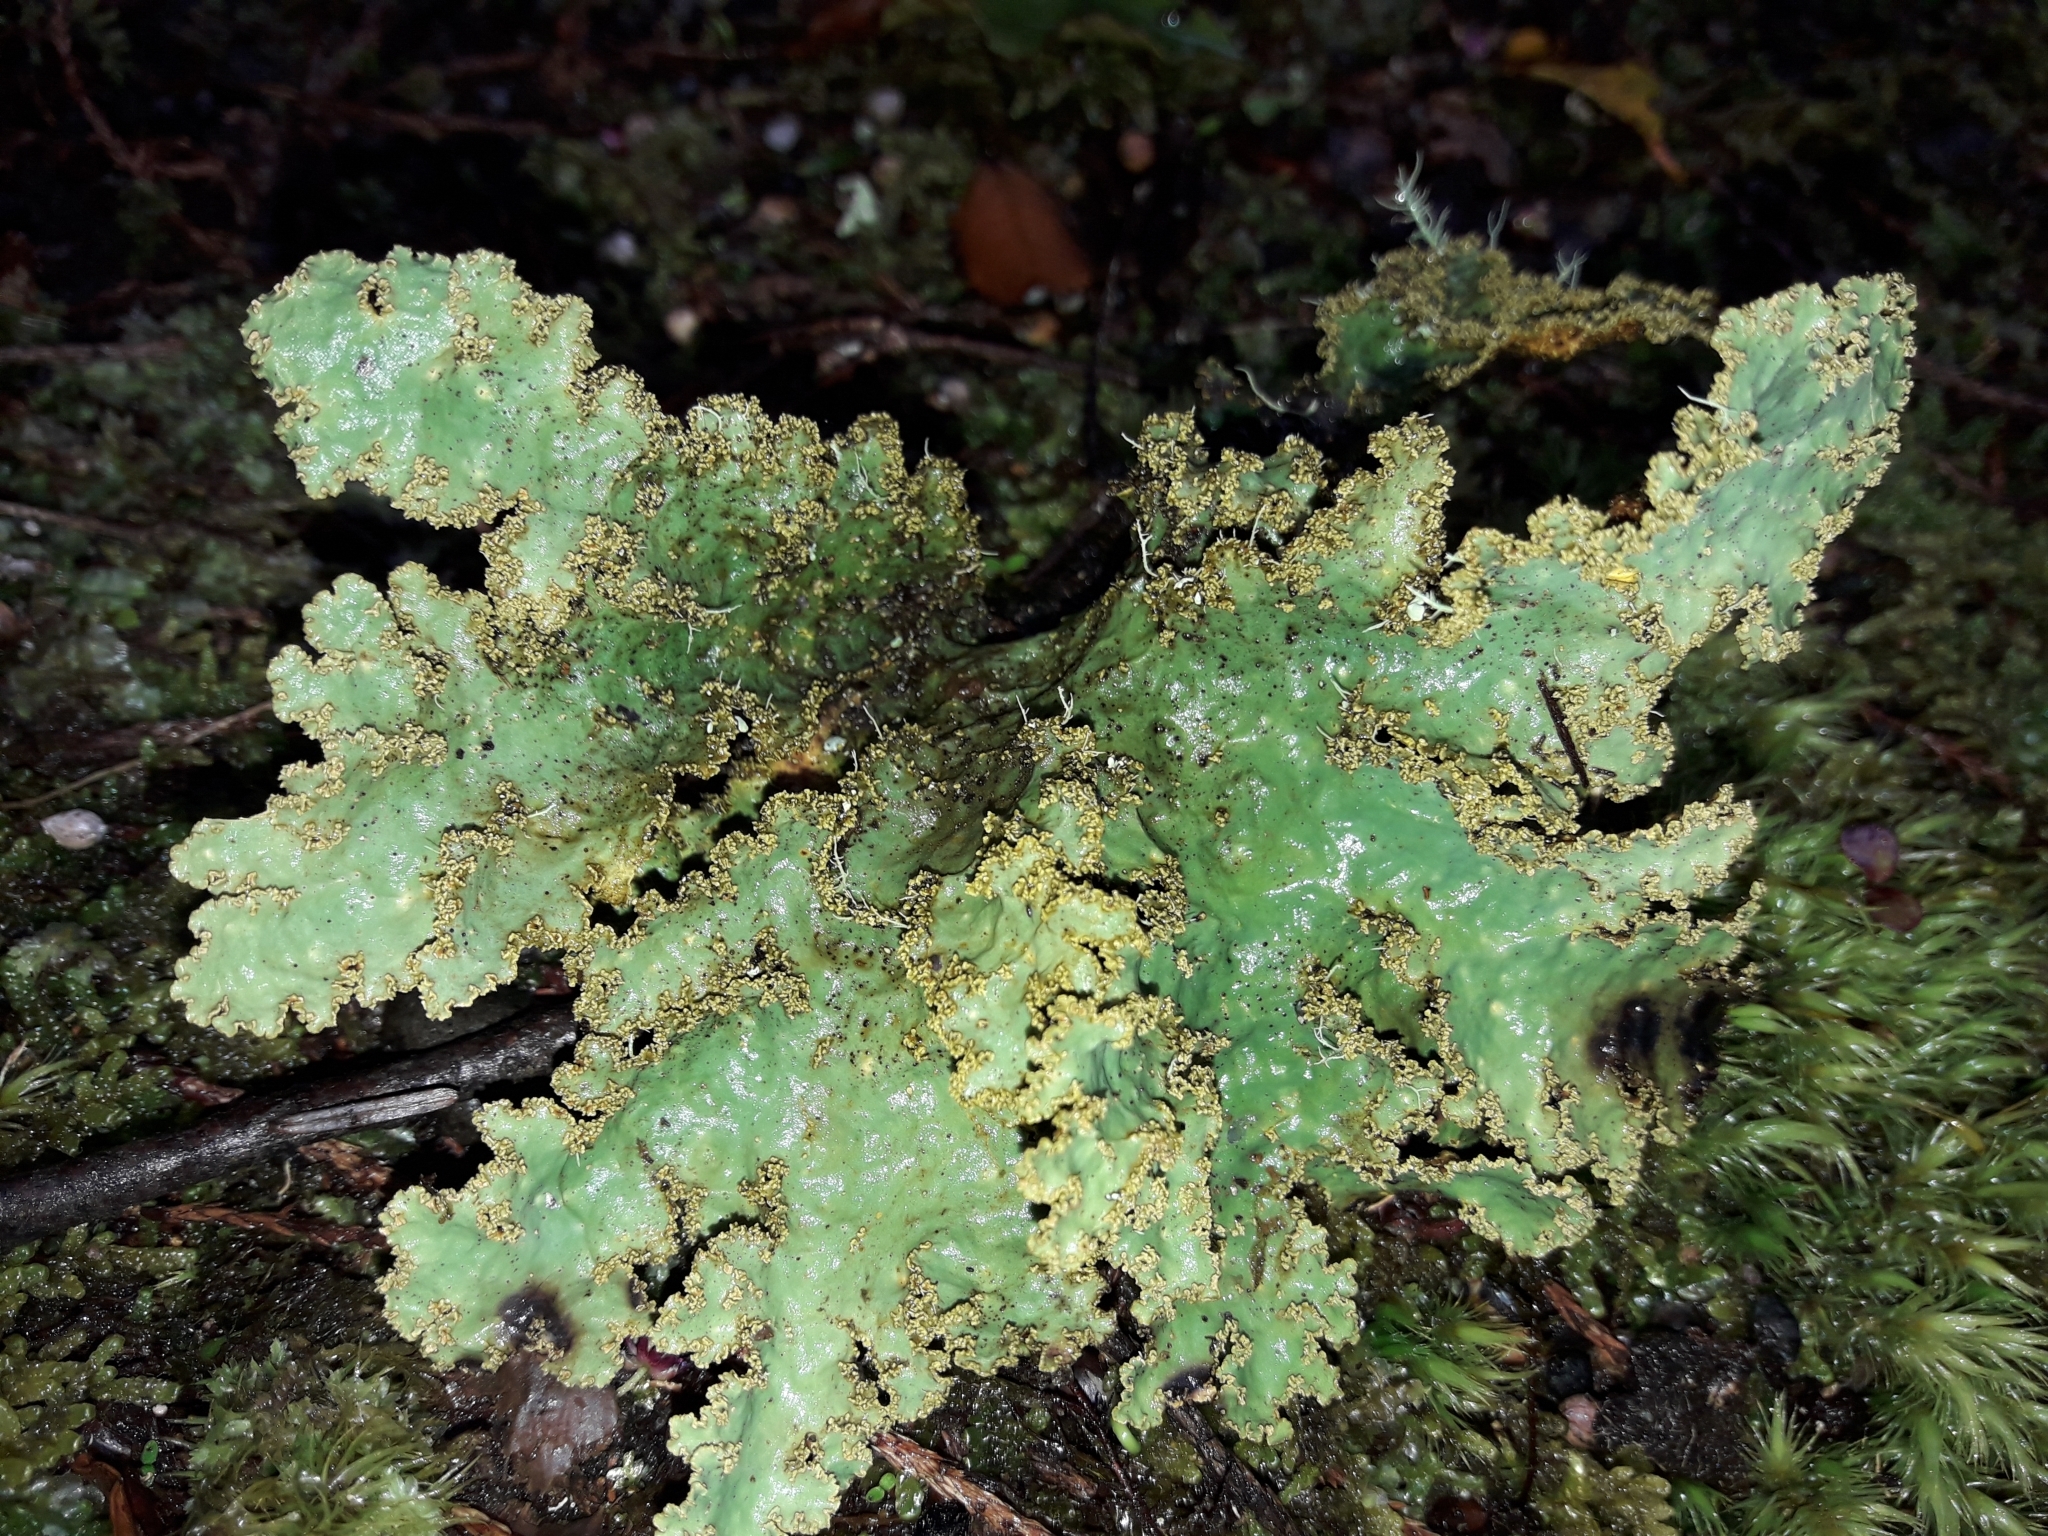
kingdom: Fungi
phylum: Ascomycota
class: Lecanoromycetes
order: Peltigerales
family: Lobariaceae
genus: Yarrumia
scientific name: Yarrumia colensoi
